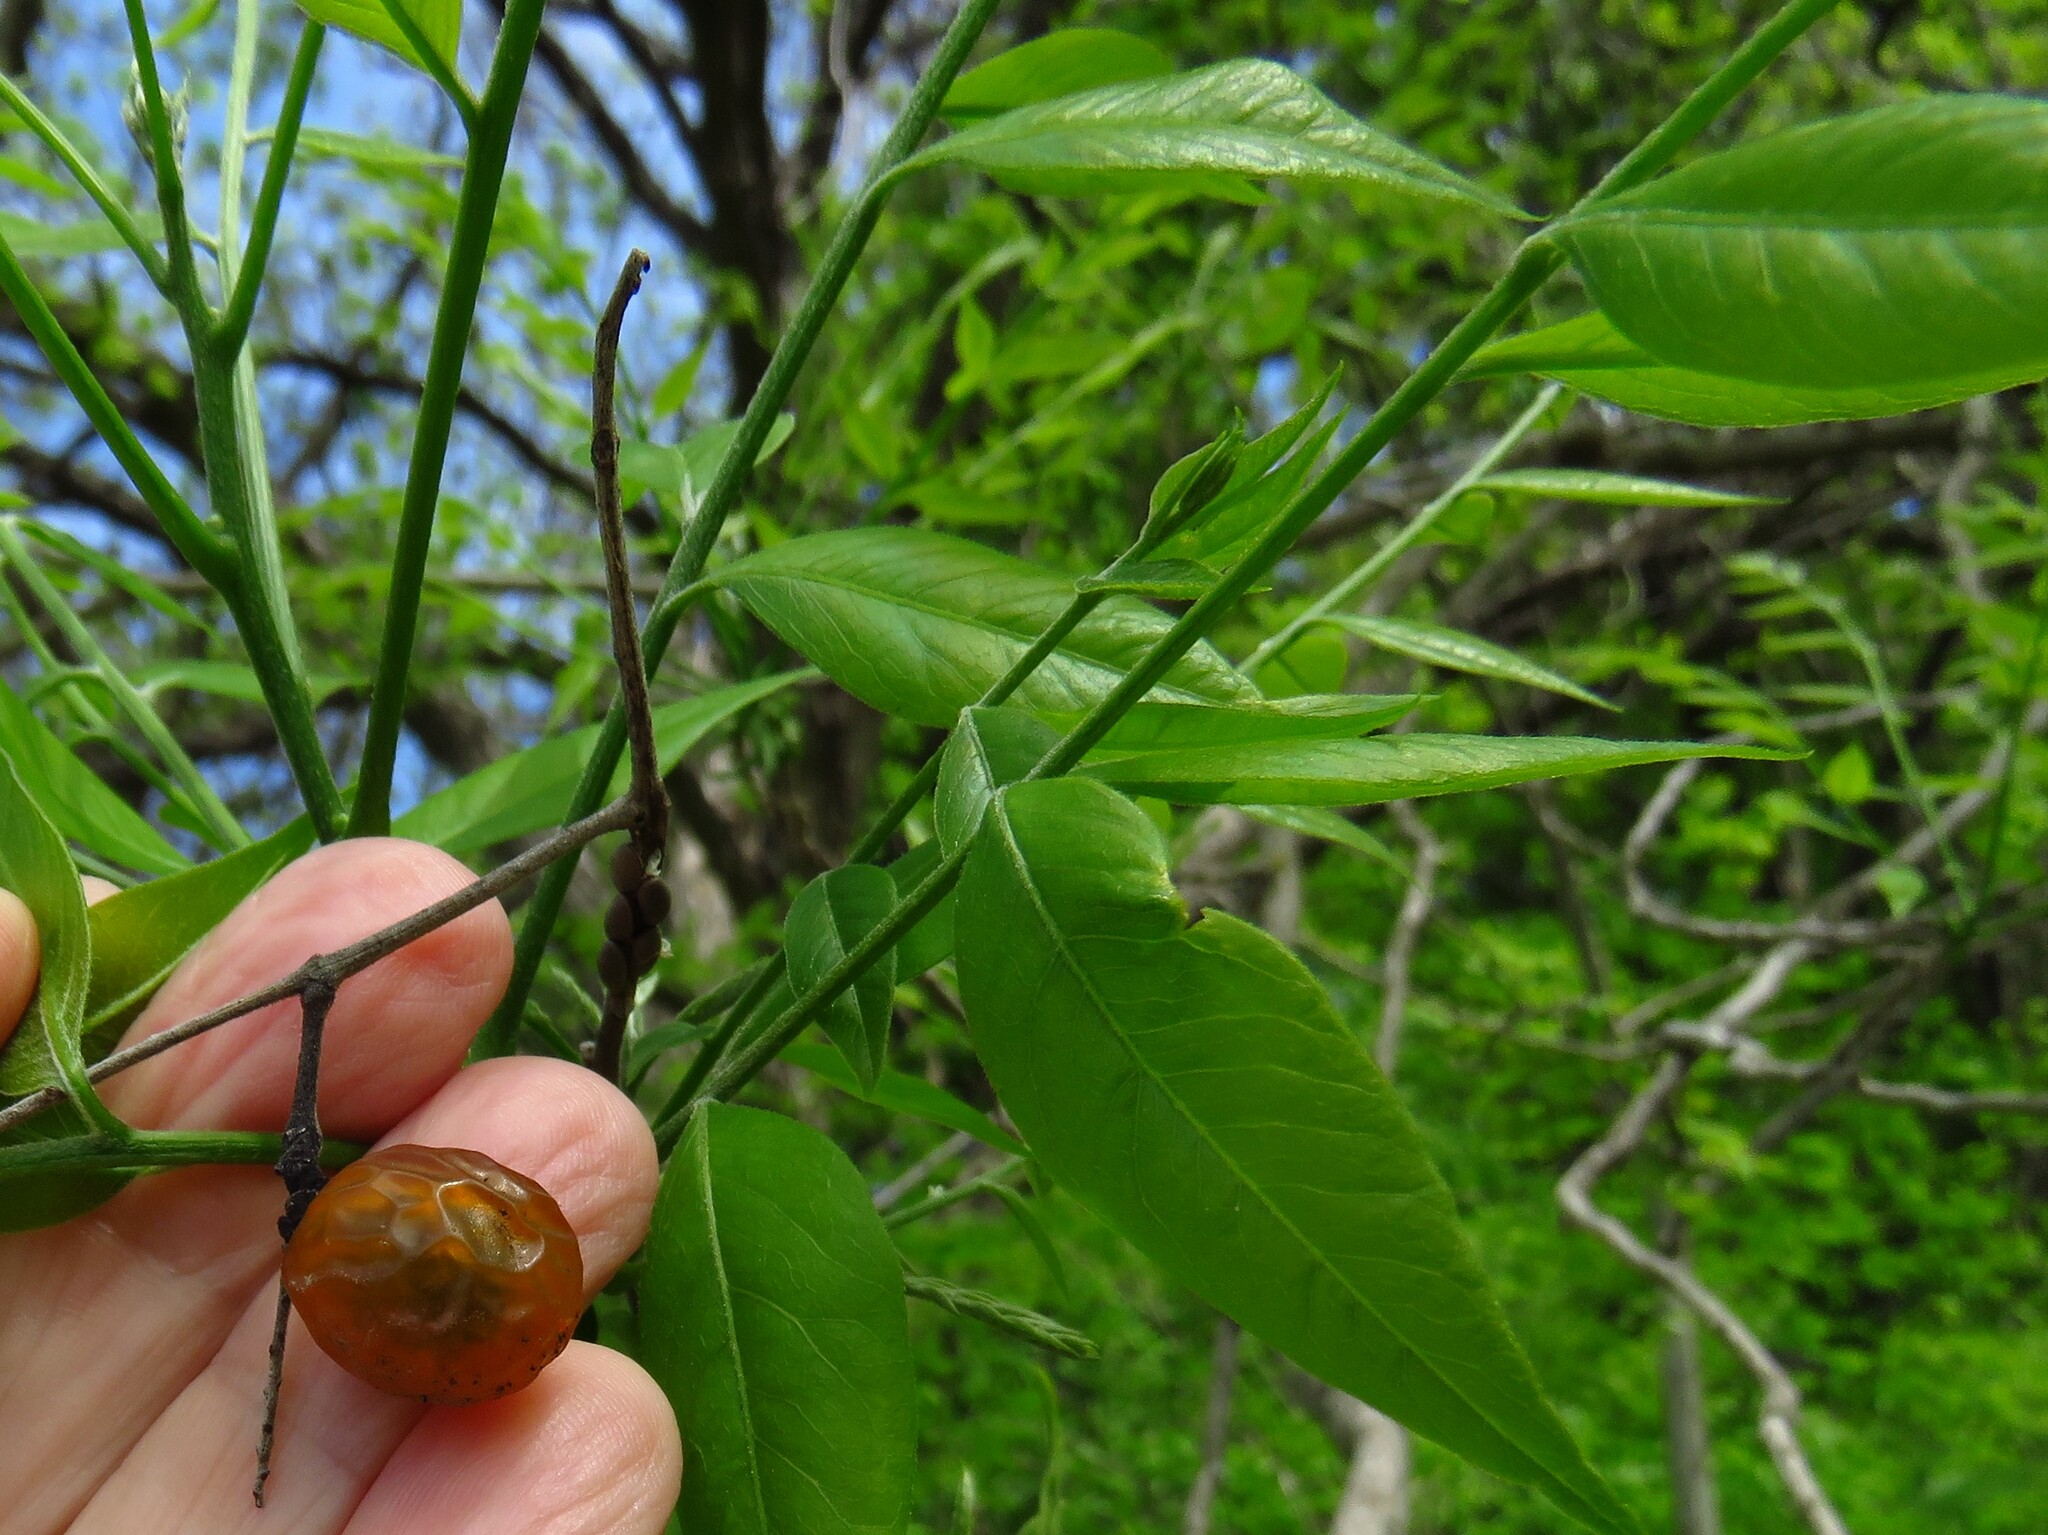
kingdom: Plantae
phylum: Tracheophyta
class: Magnoliopsida
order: Sapindales
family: Sapindaceae
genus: Sapindus
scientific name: Sapindus drummondii
